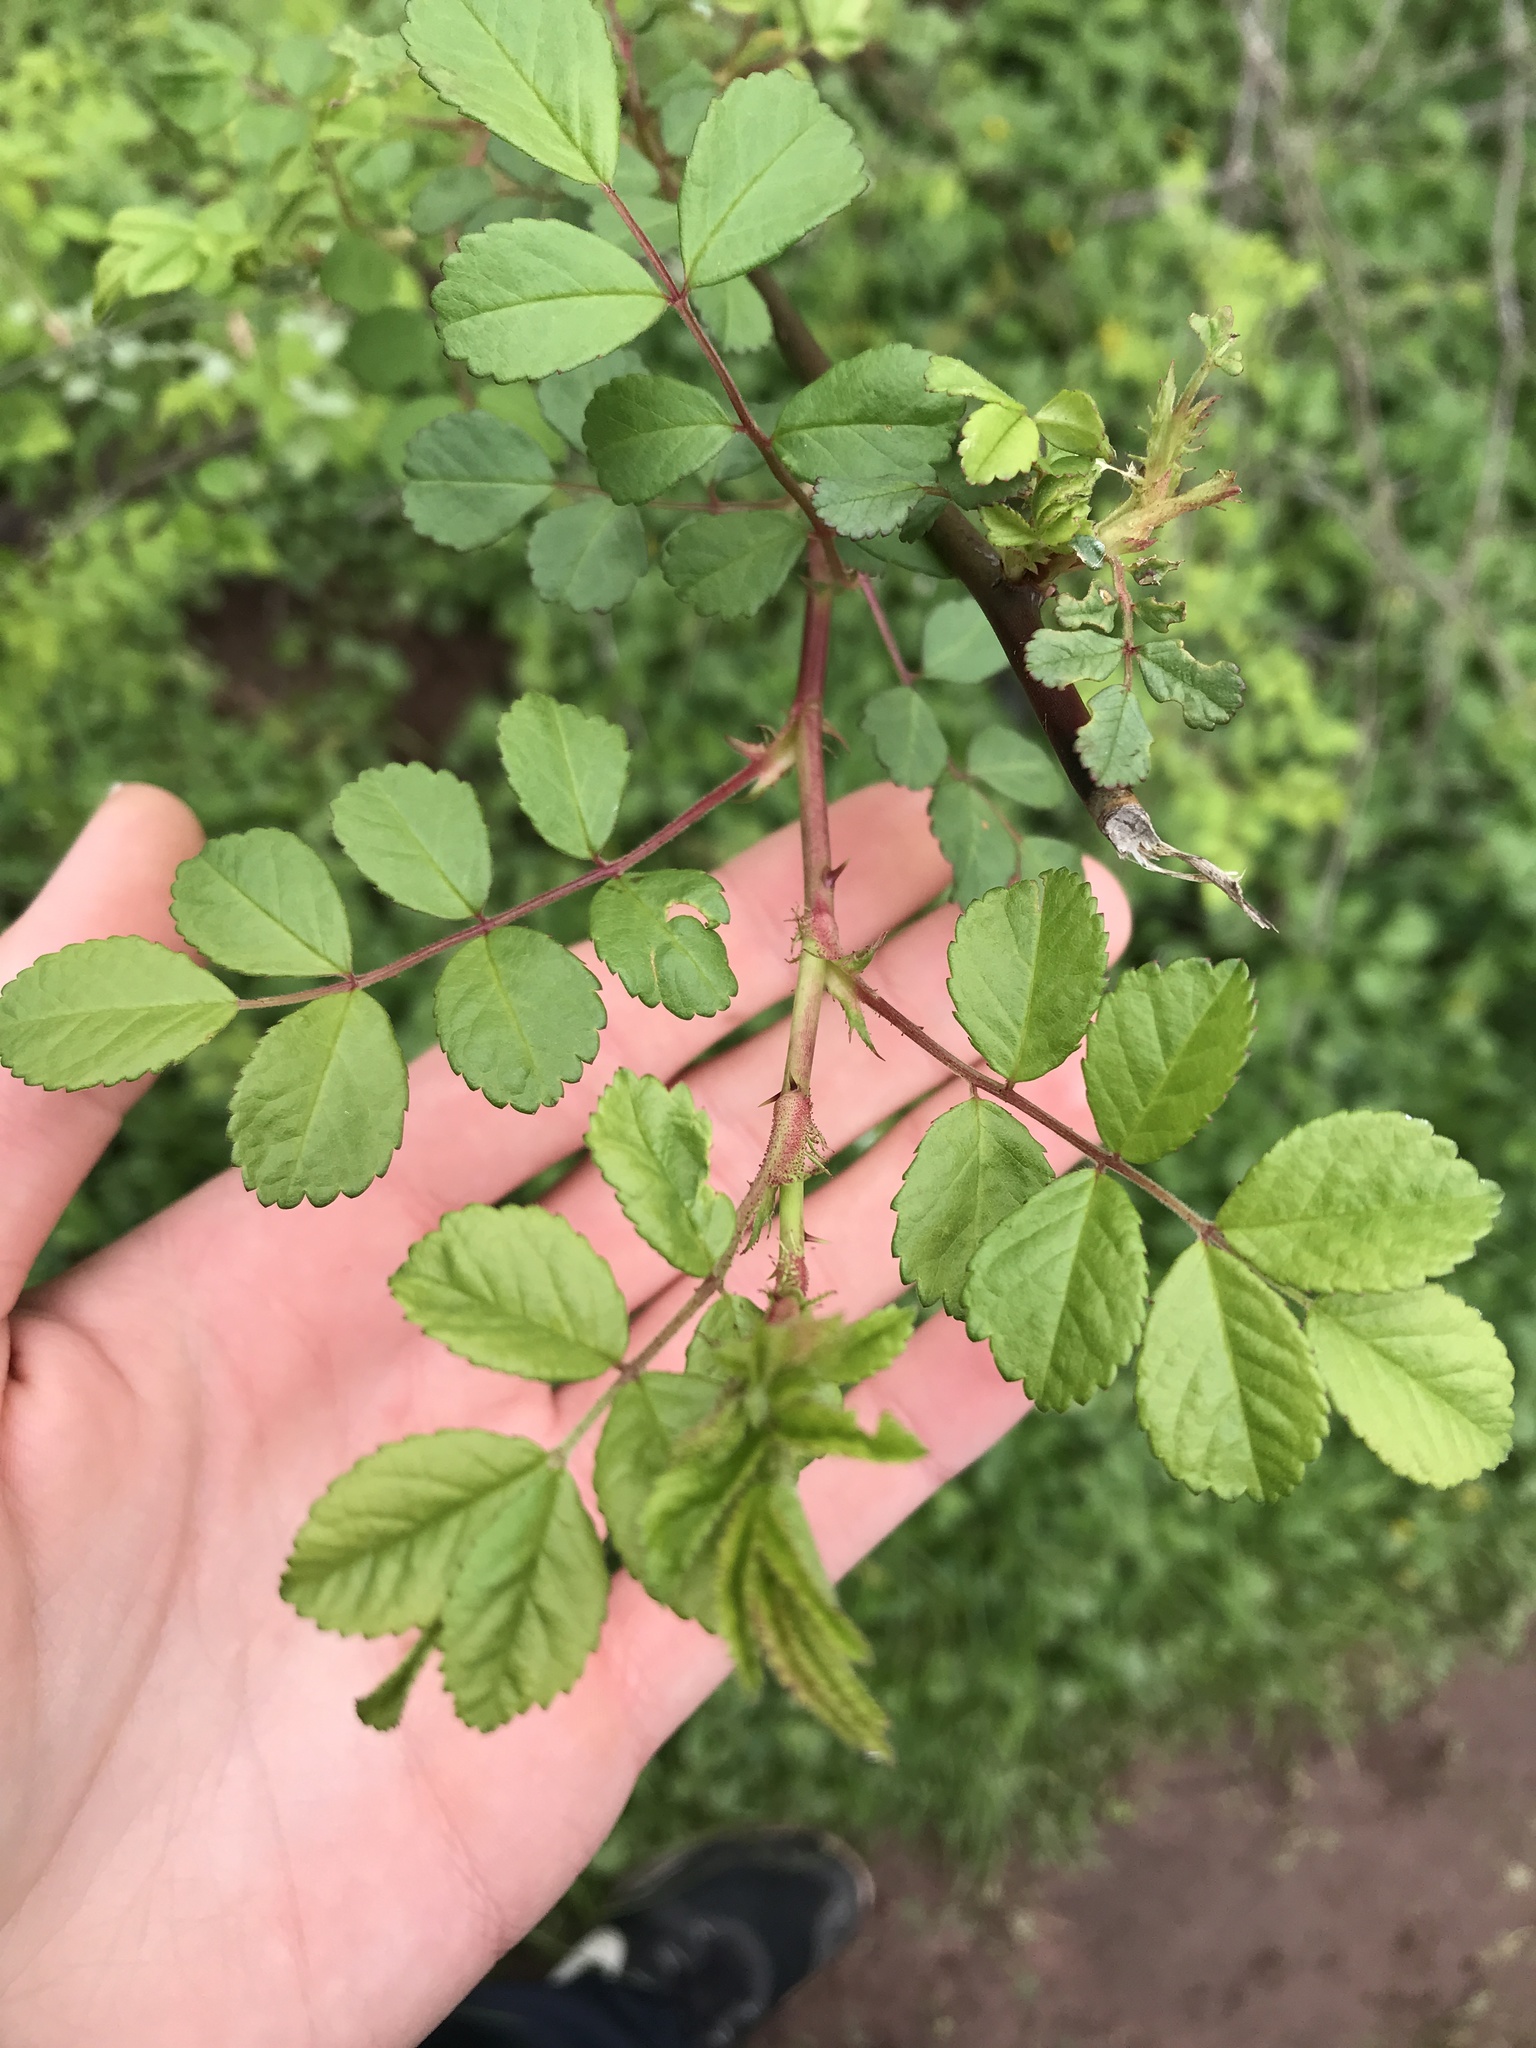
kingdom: Plantae
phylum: Tracheophyta
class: Magnoliopsida
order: Rosales
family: Rosaceae
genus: Rosa
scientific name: Rosa multiflora
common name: Multiflora rose
